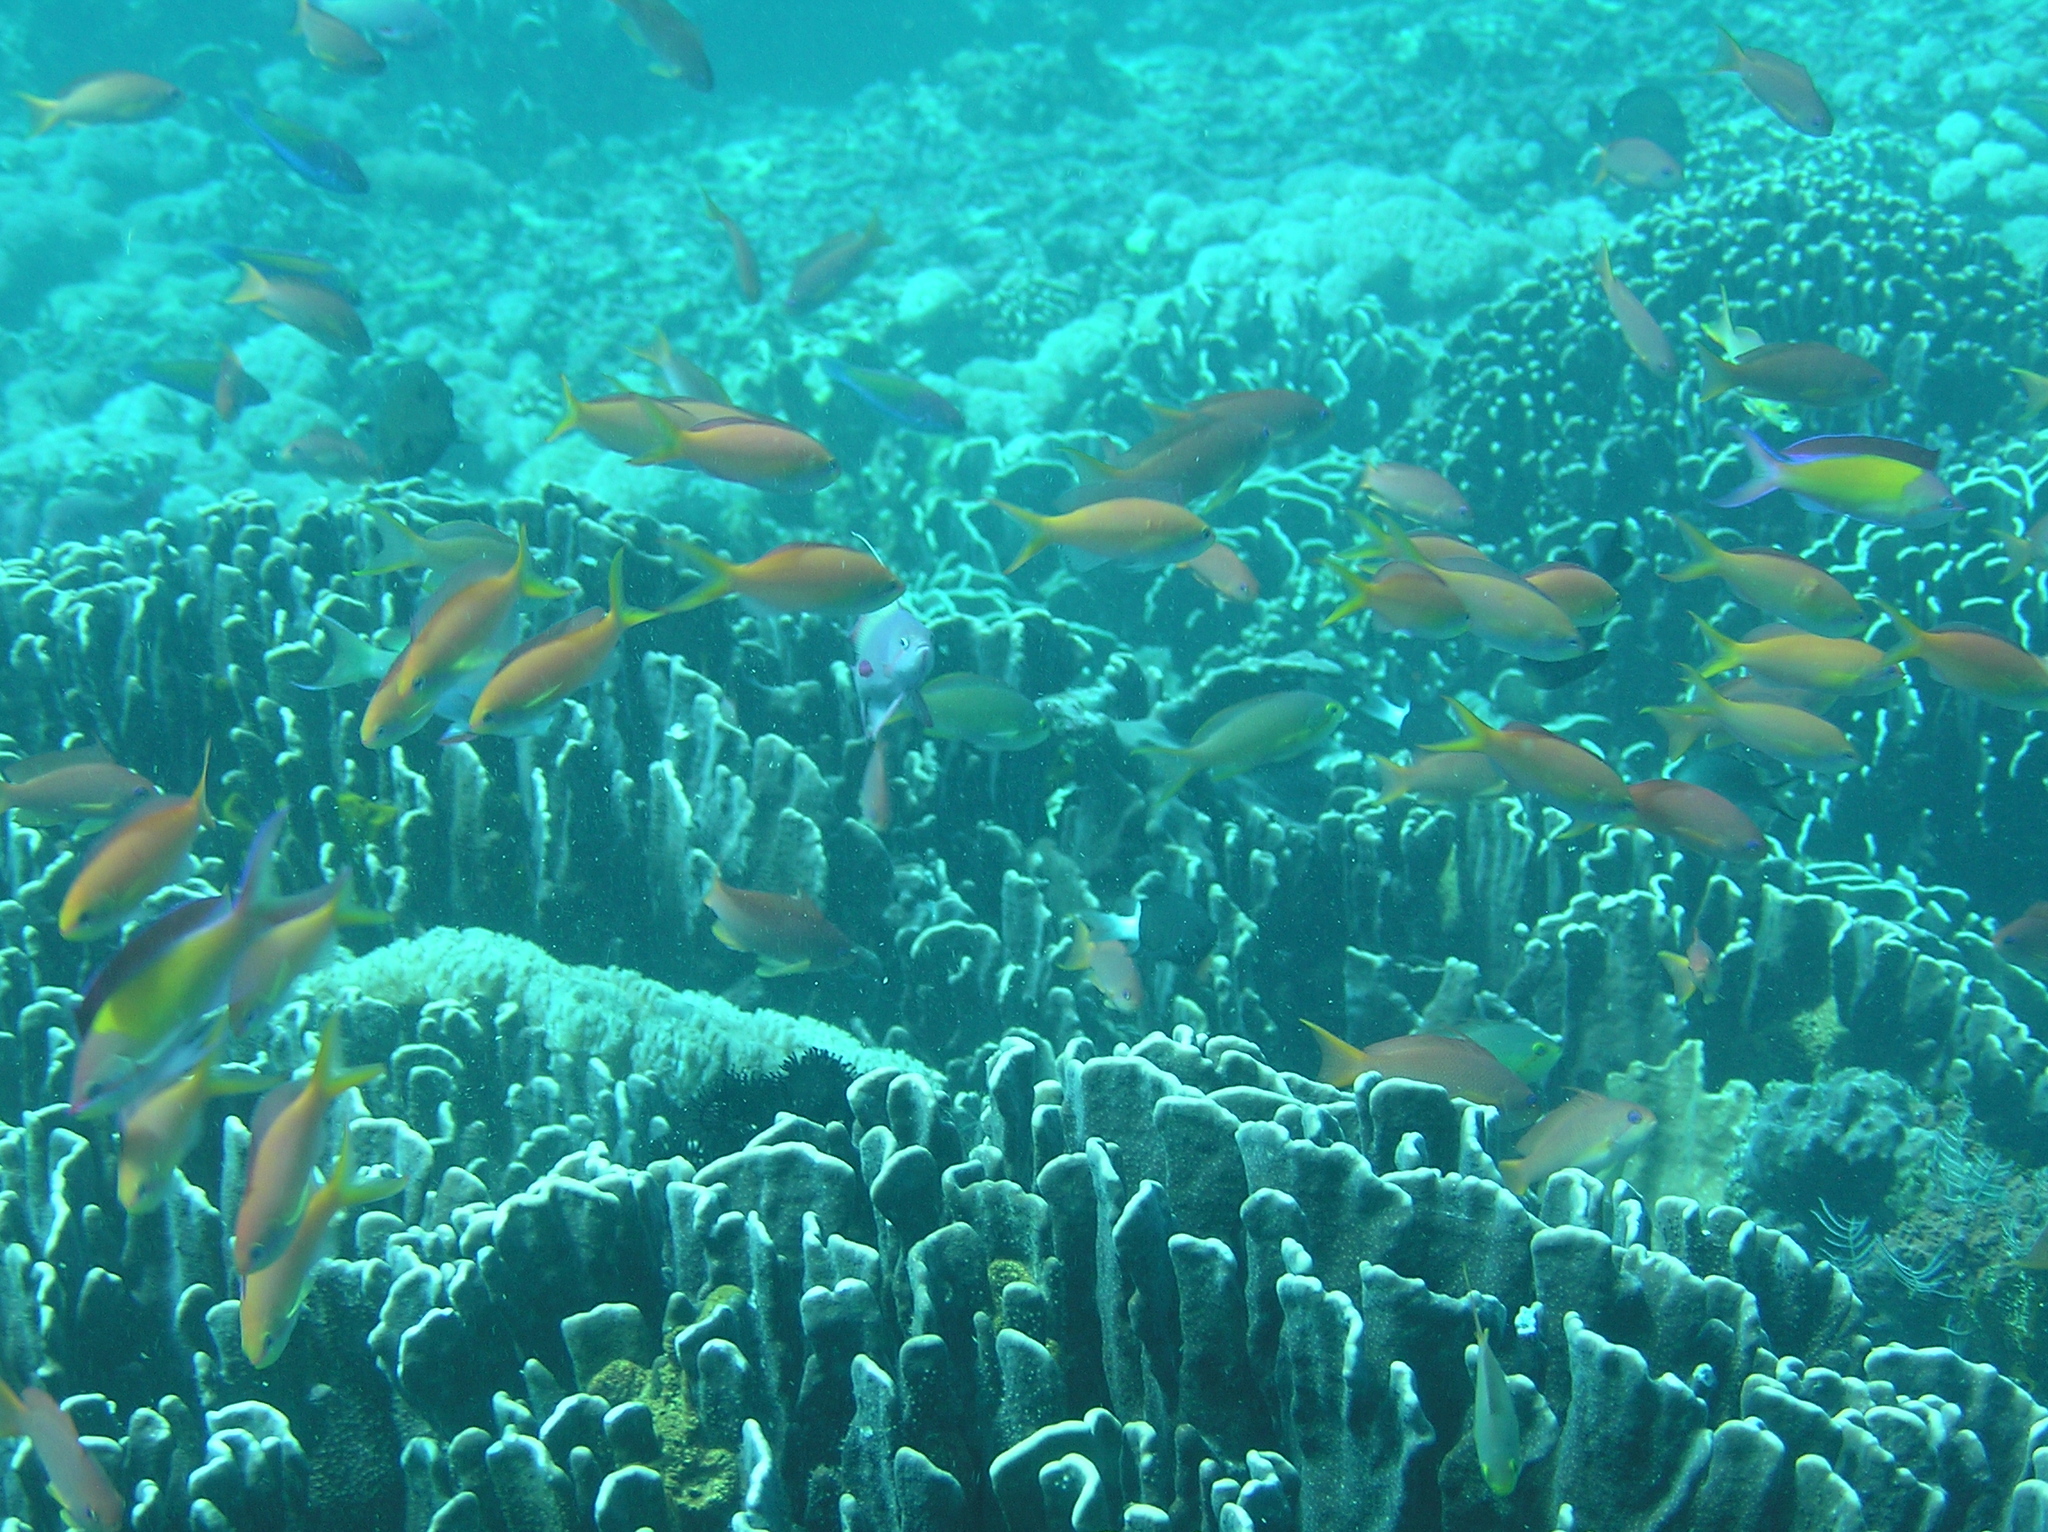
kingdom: Animalia
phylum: Chordata
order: Perciformes
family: Serranidae
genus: Nemanthias
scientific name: Nemanthias
